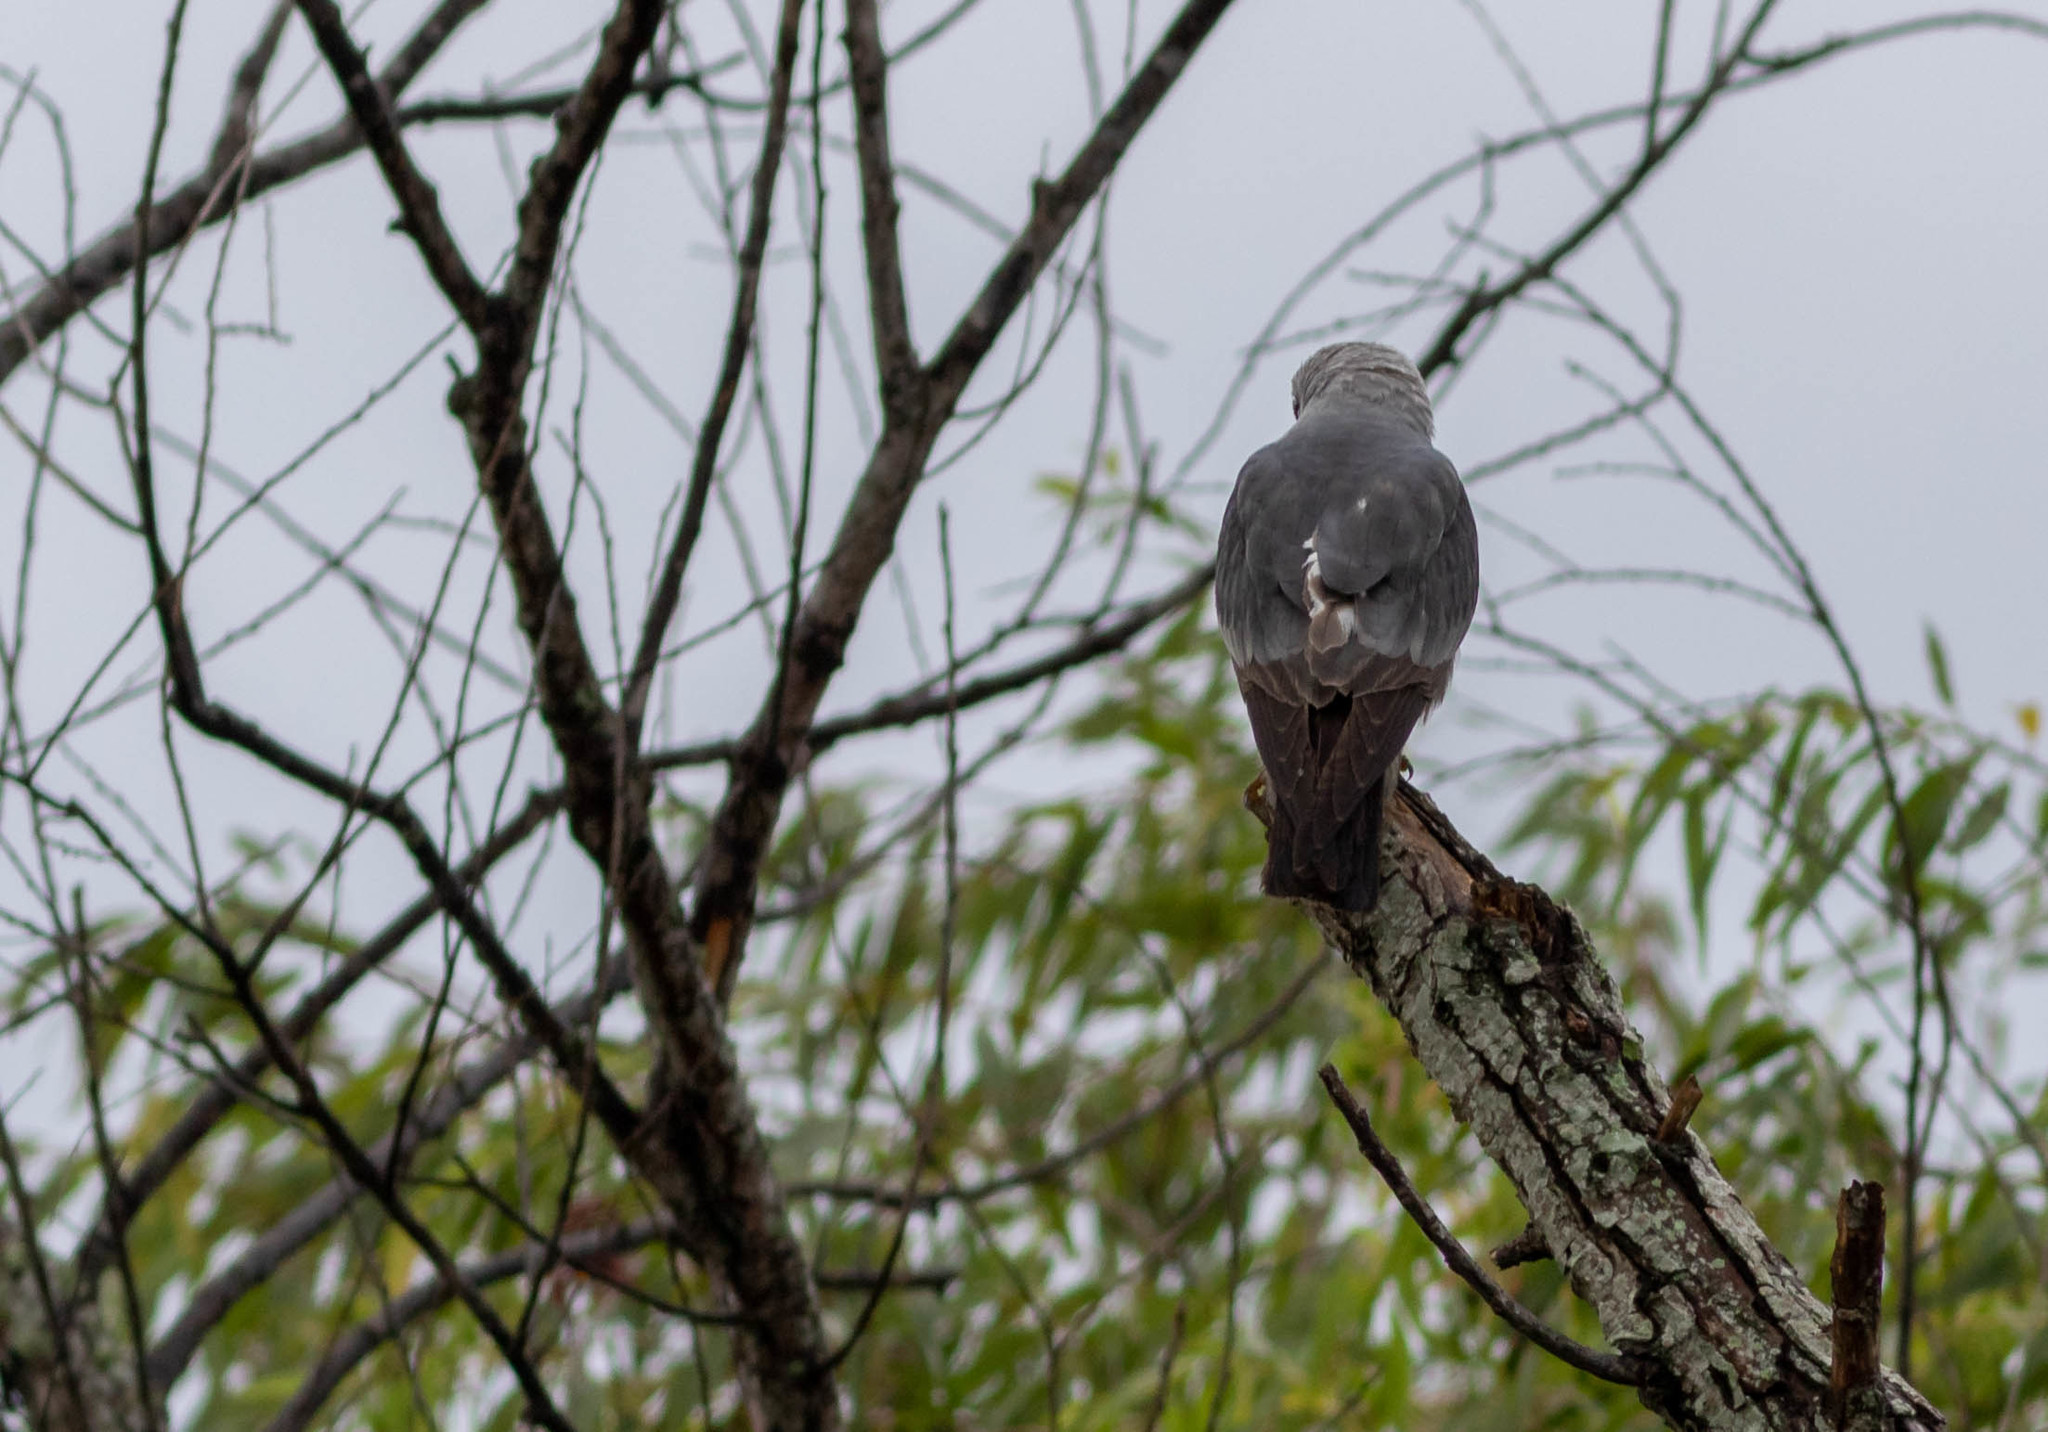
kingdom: Animalia
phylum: Chordata
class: Aves
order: Accipitriformes
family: Accipitridae
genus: Ictinia
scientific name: Ictinia mississippiensis
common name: Mississippi kite
